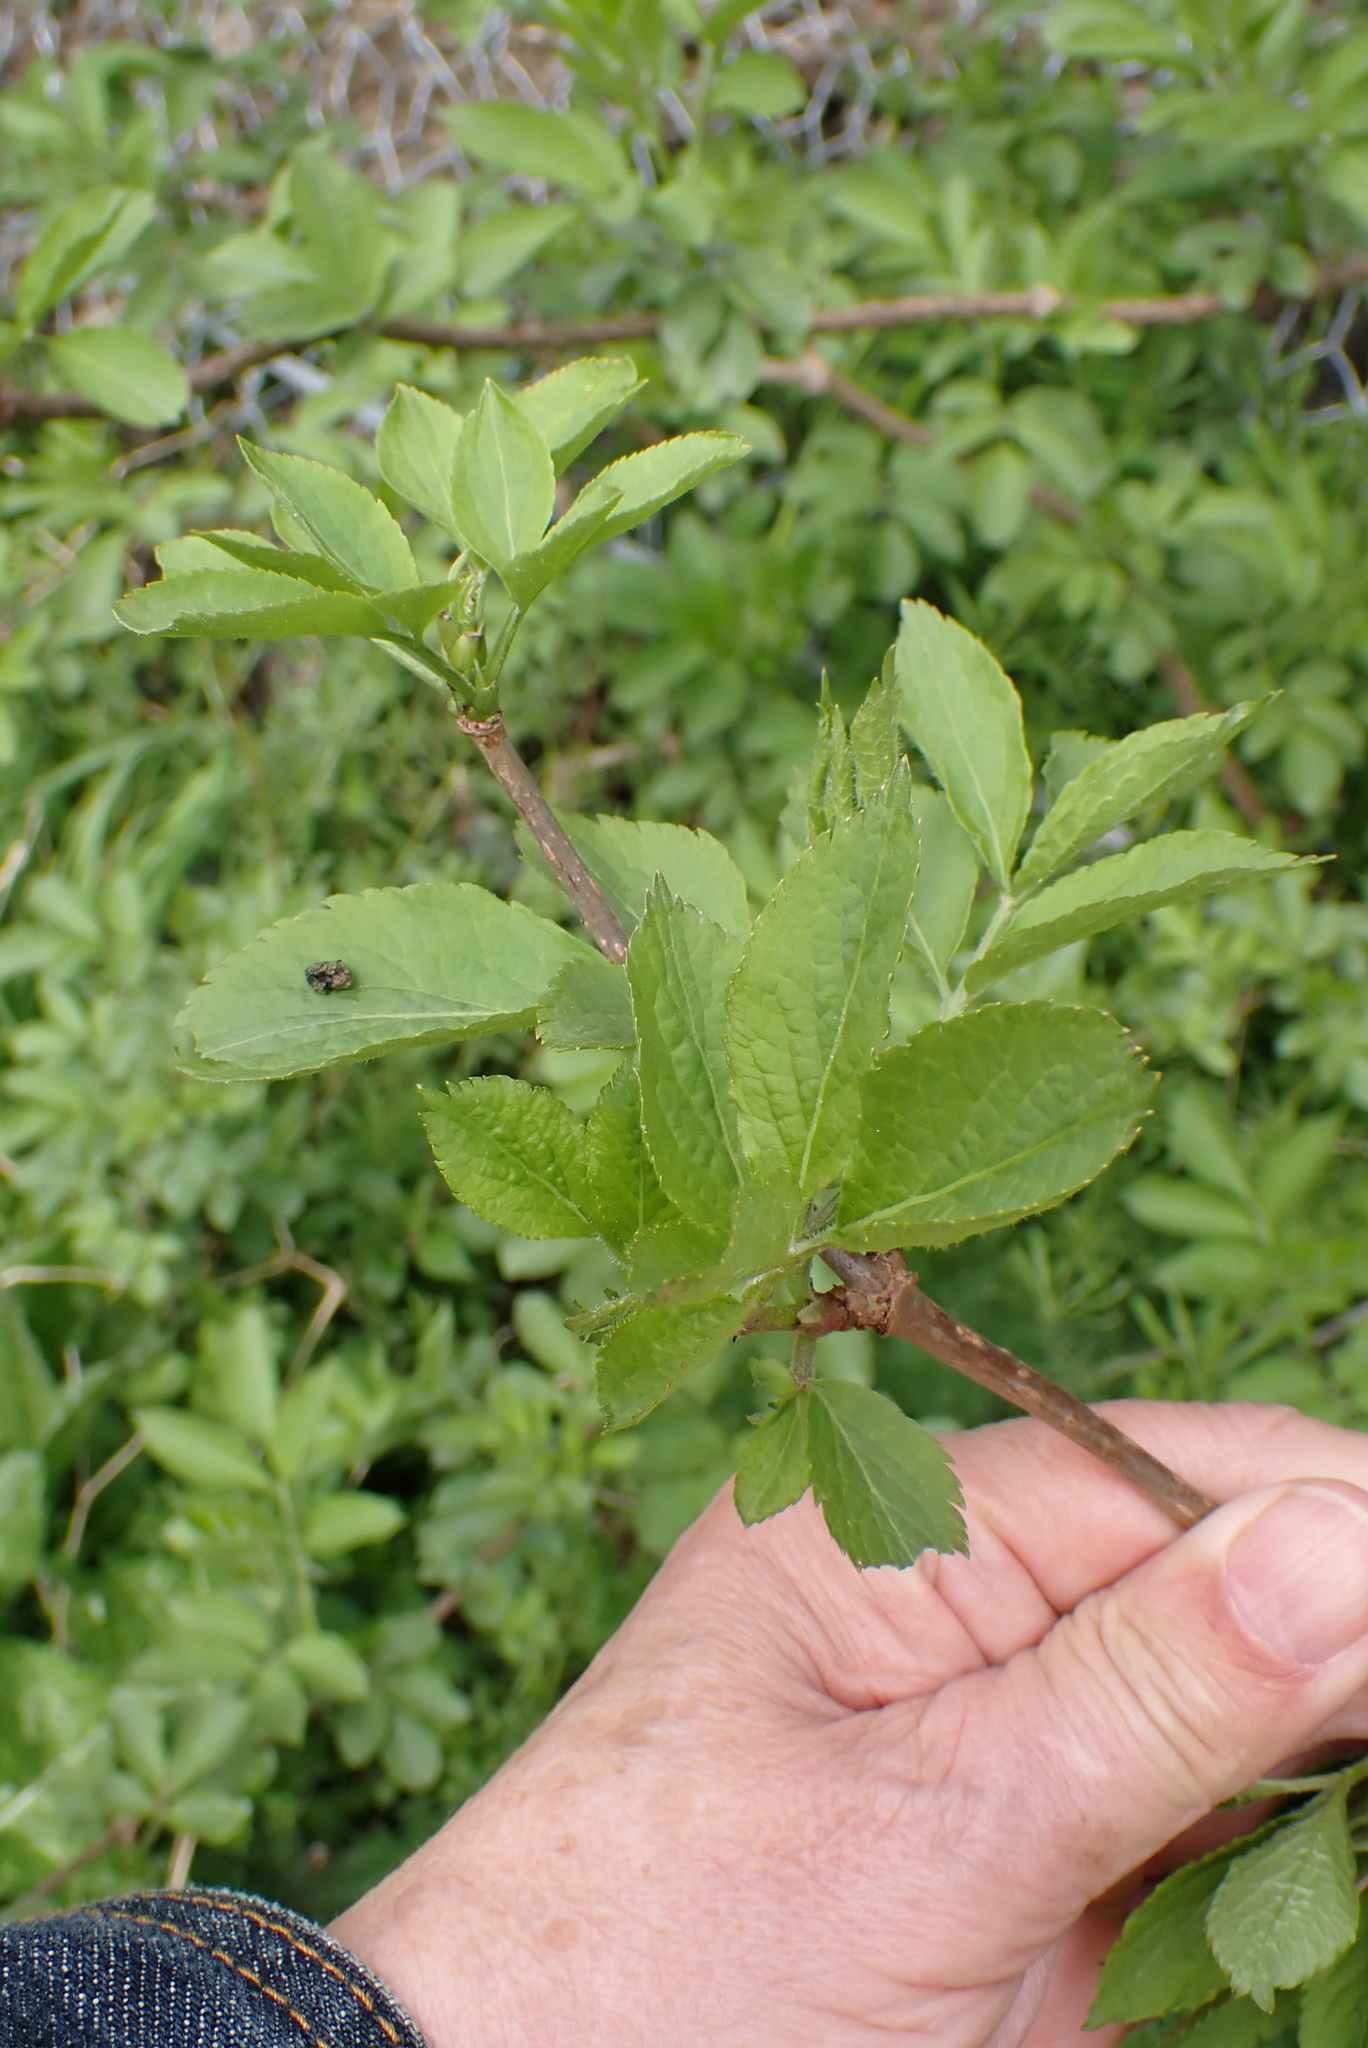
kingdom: Plantae
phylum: Tracheophyta
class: Magnoliopsida
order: Dipsacales
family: Viburnaceae
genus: Sambucus
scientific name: Sambucus nigra
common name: Elder
